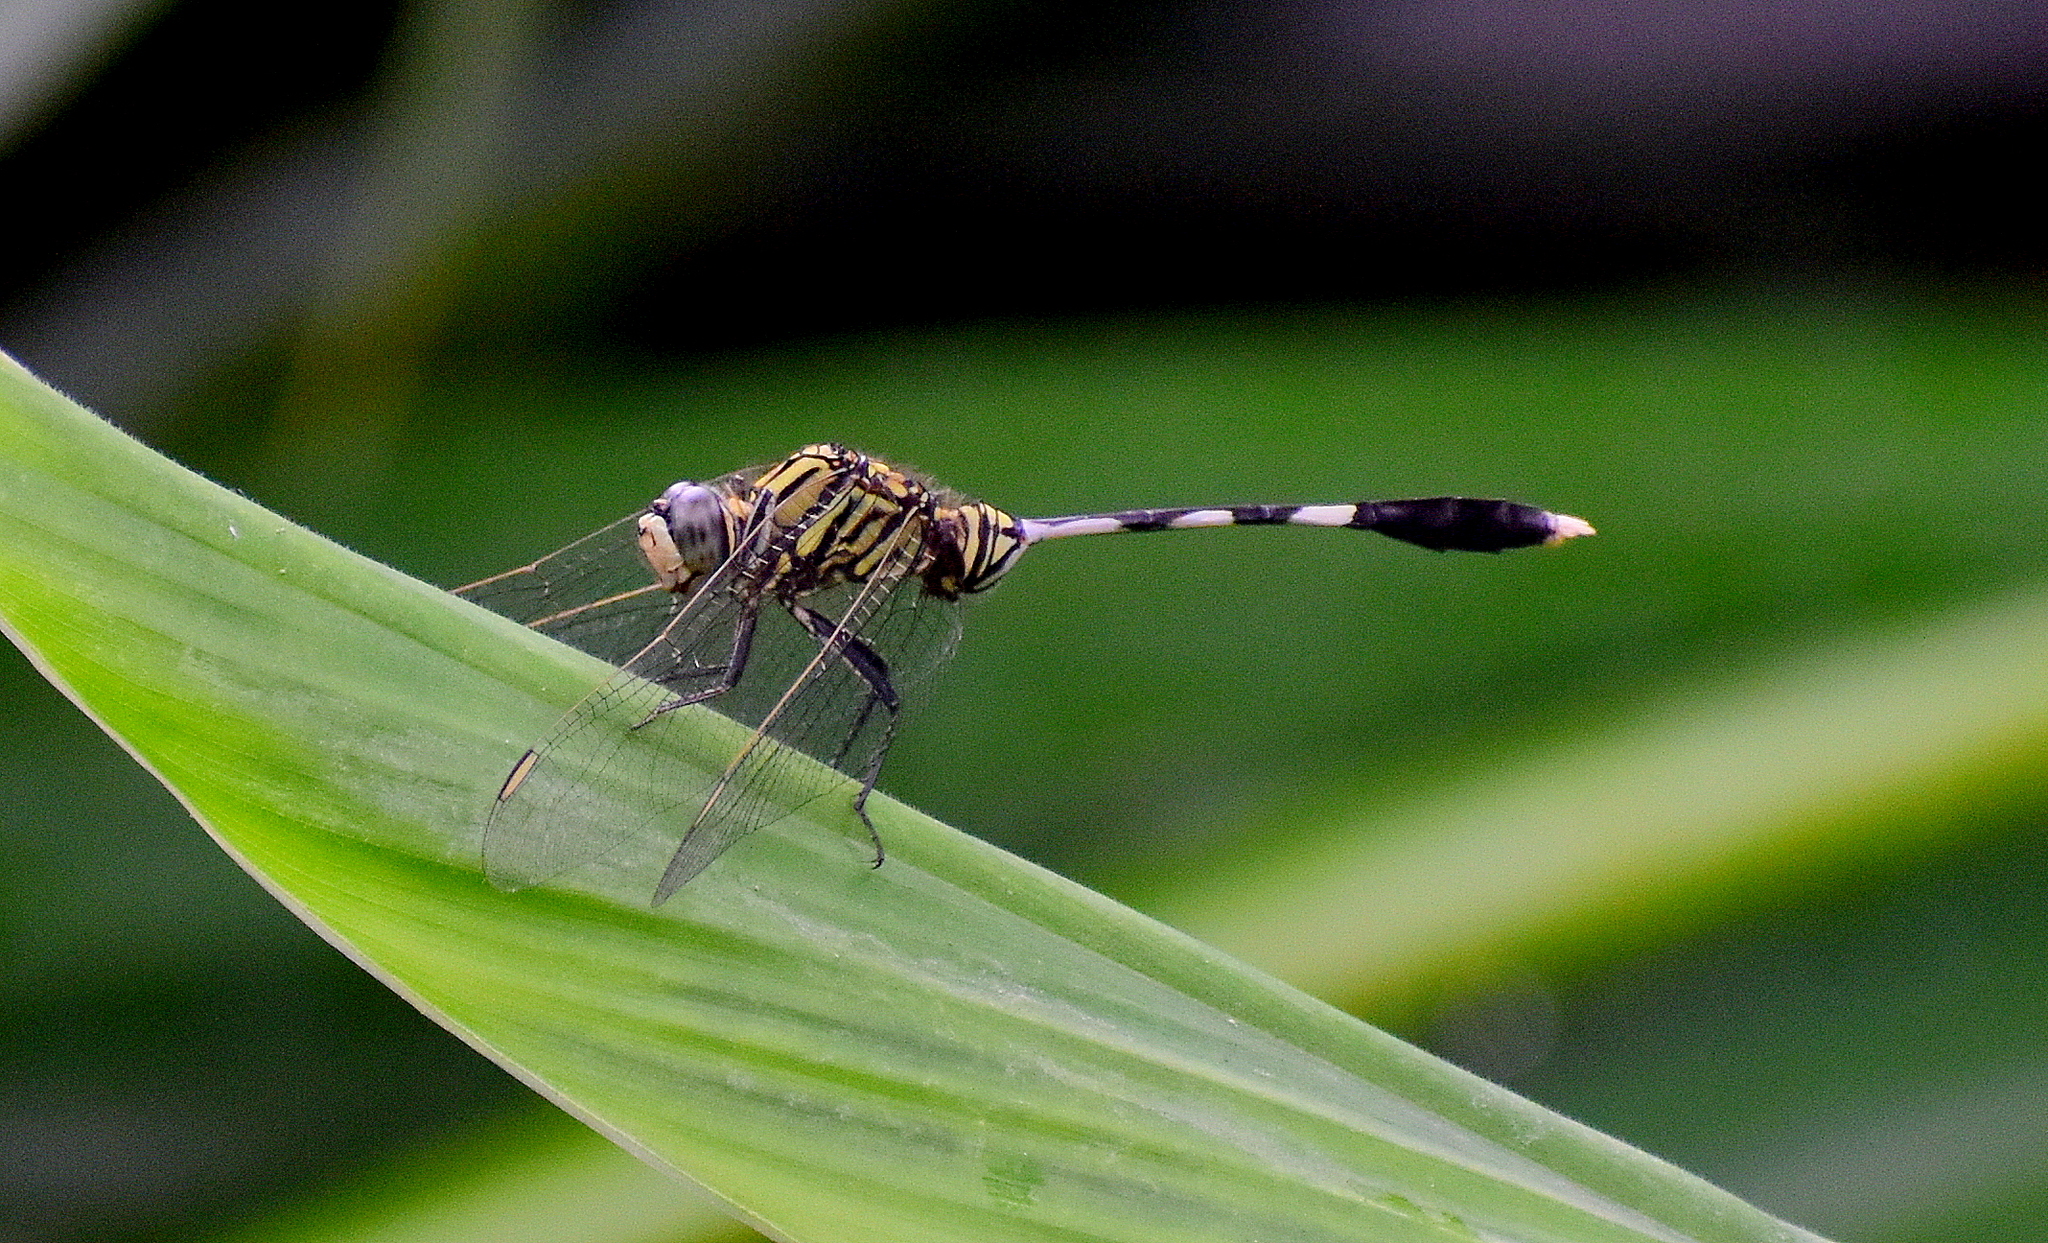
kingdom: Animalia
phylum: Arthropoda
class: Insecta
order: Odonata
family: Libellulidae
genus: Orthetrum
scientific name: Orthetrum sabina
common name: Slender skimmer
